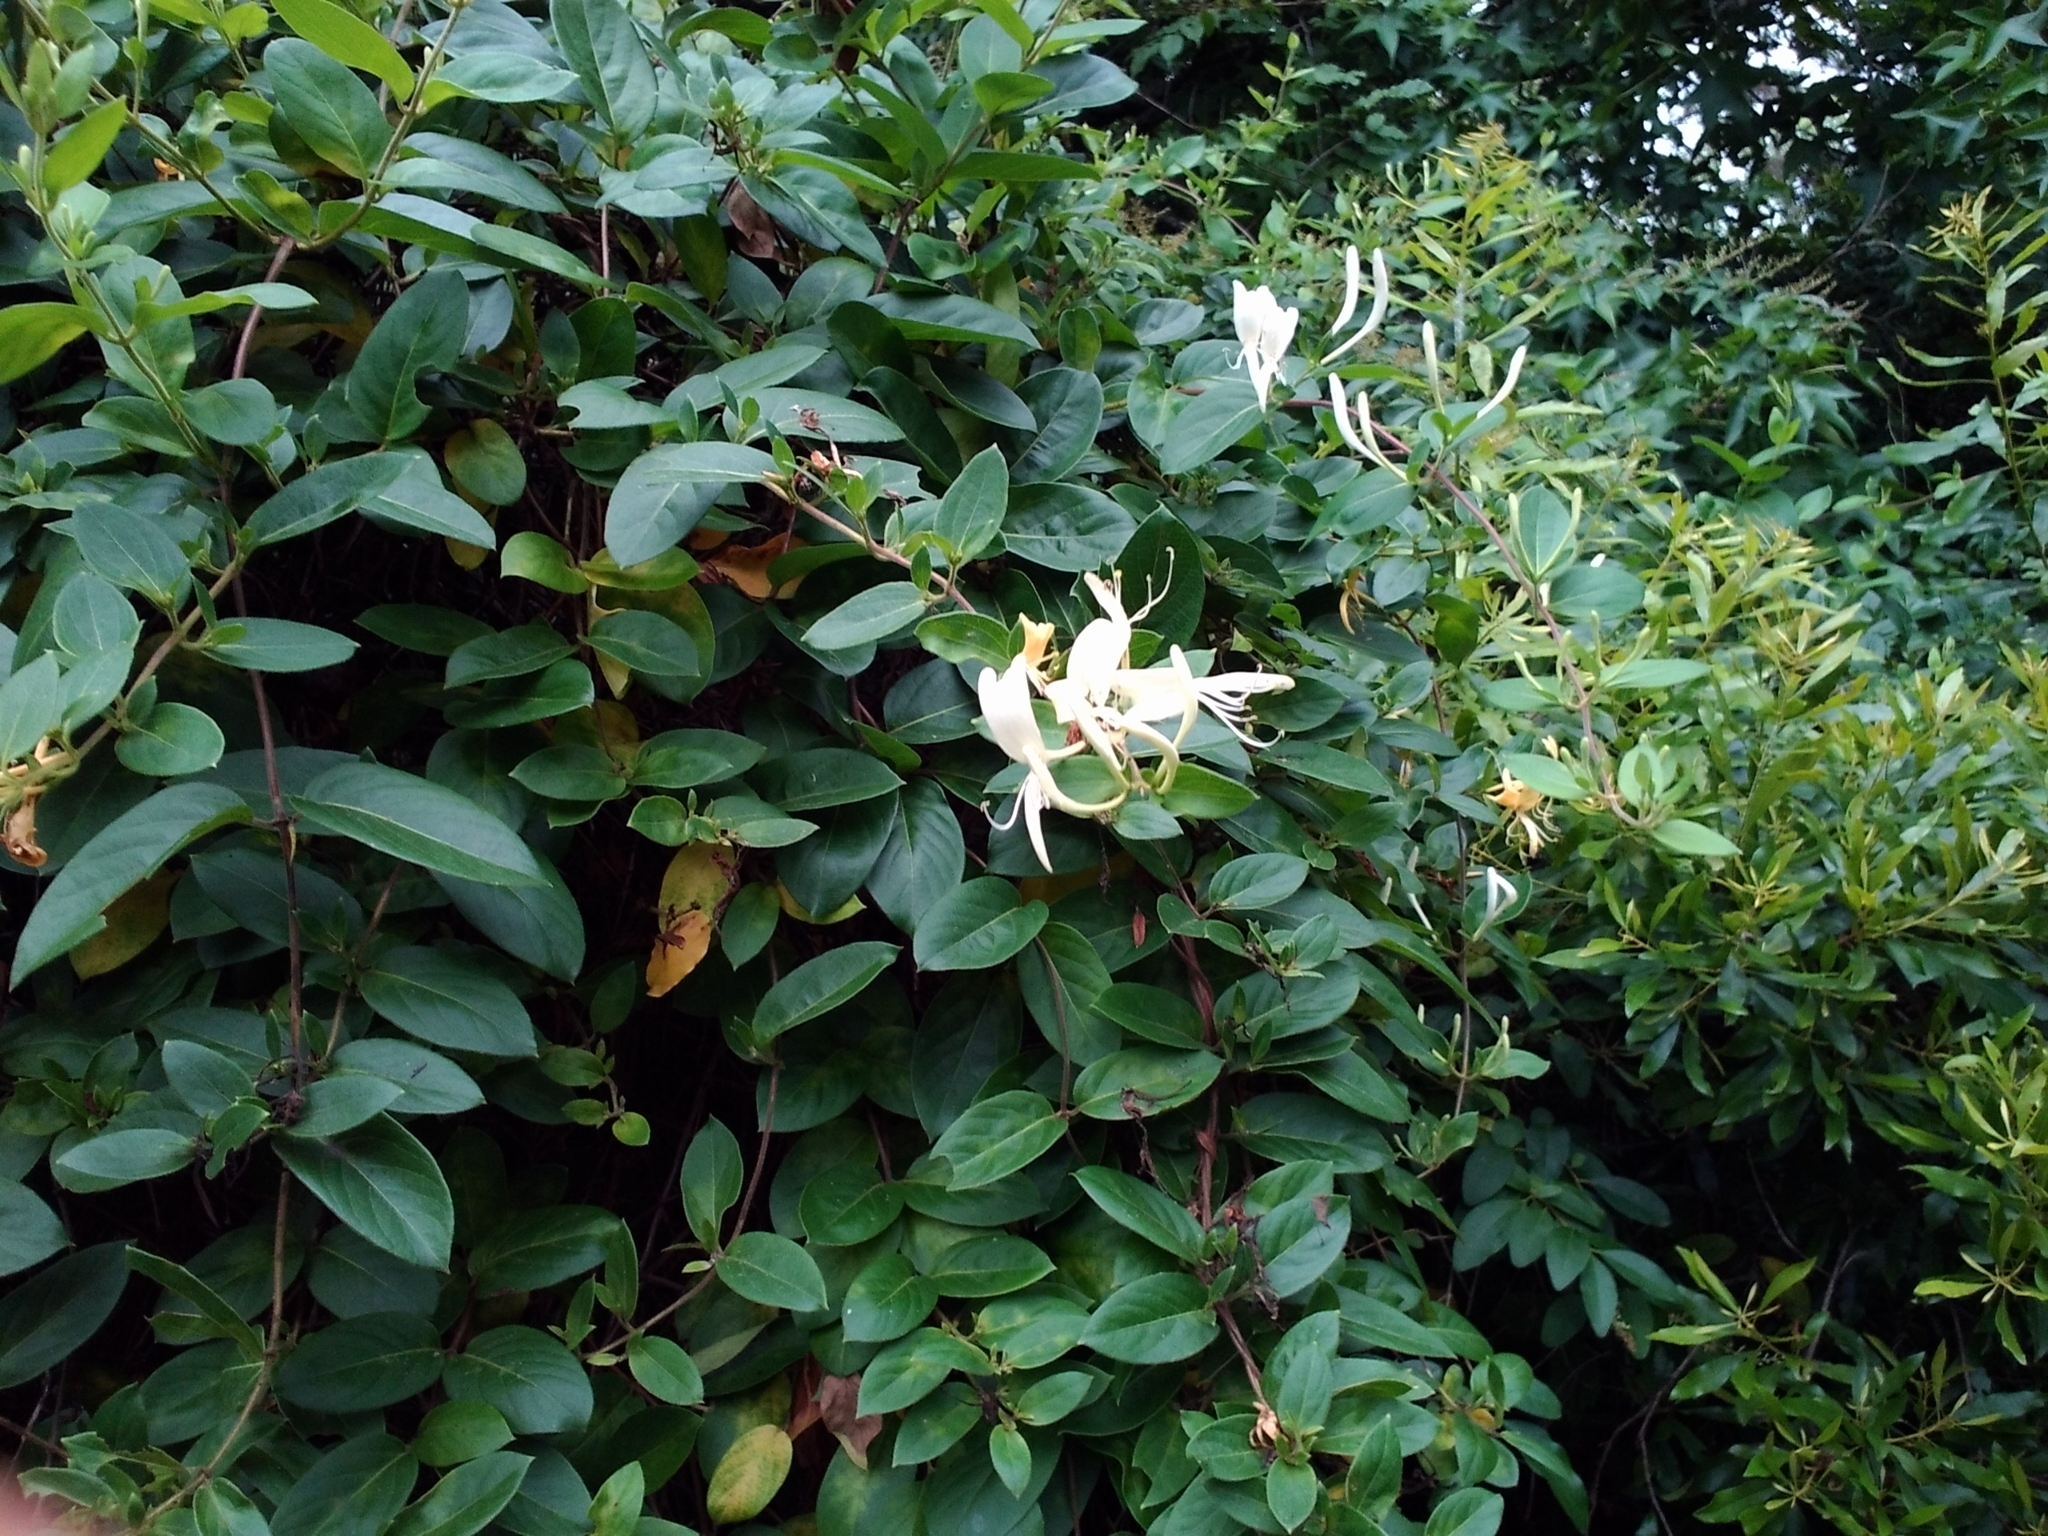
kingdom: Plantae
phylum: Tracheophyta
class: Magnoliopsida
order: Dipsacales
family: Caprifoliaceae
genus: Lonicera
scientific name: Lonicera japonica
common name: Japanese honeysuckle
